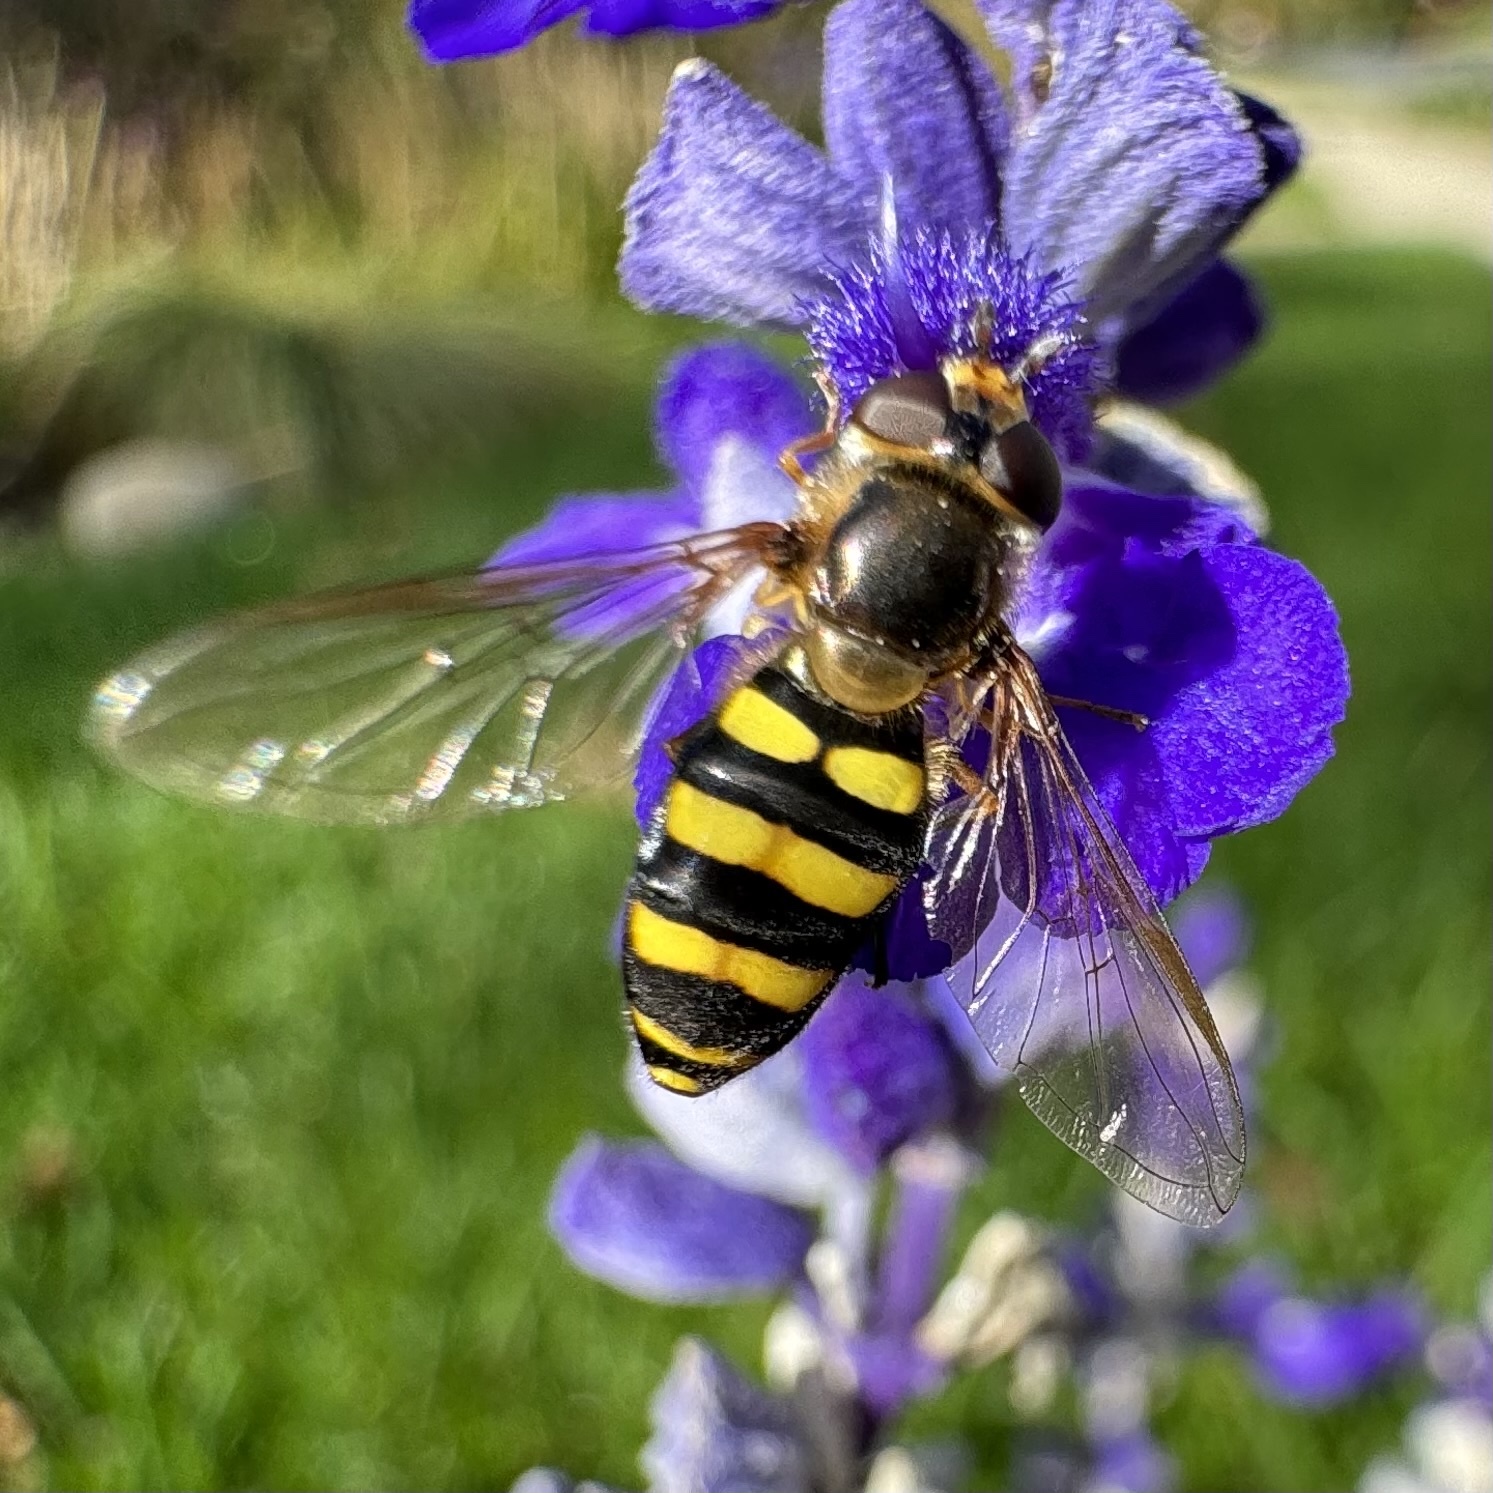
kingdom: Animalia
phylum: Arthropoda
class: Insecta
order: Diptera
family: Syrphidae
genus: Eupeodes
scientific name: Eupeodes
